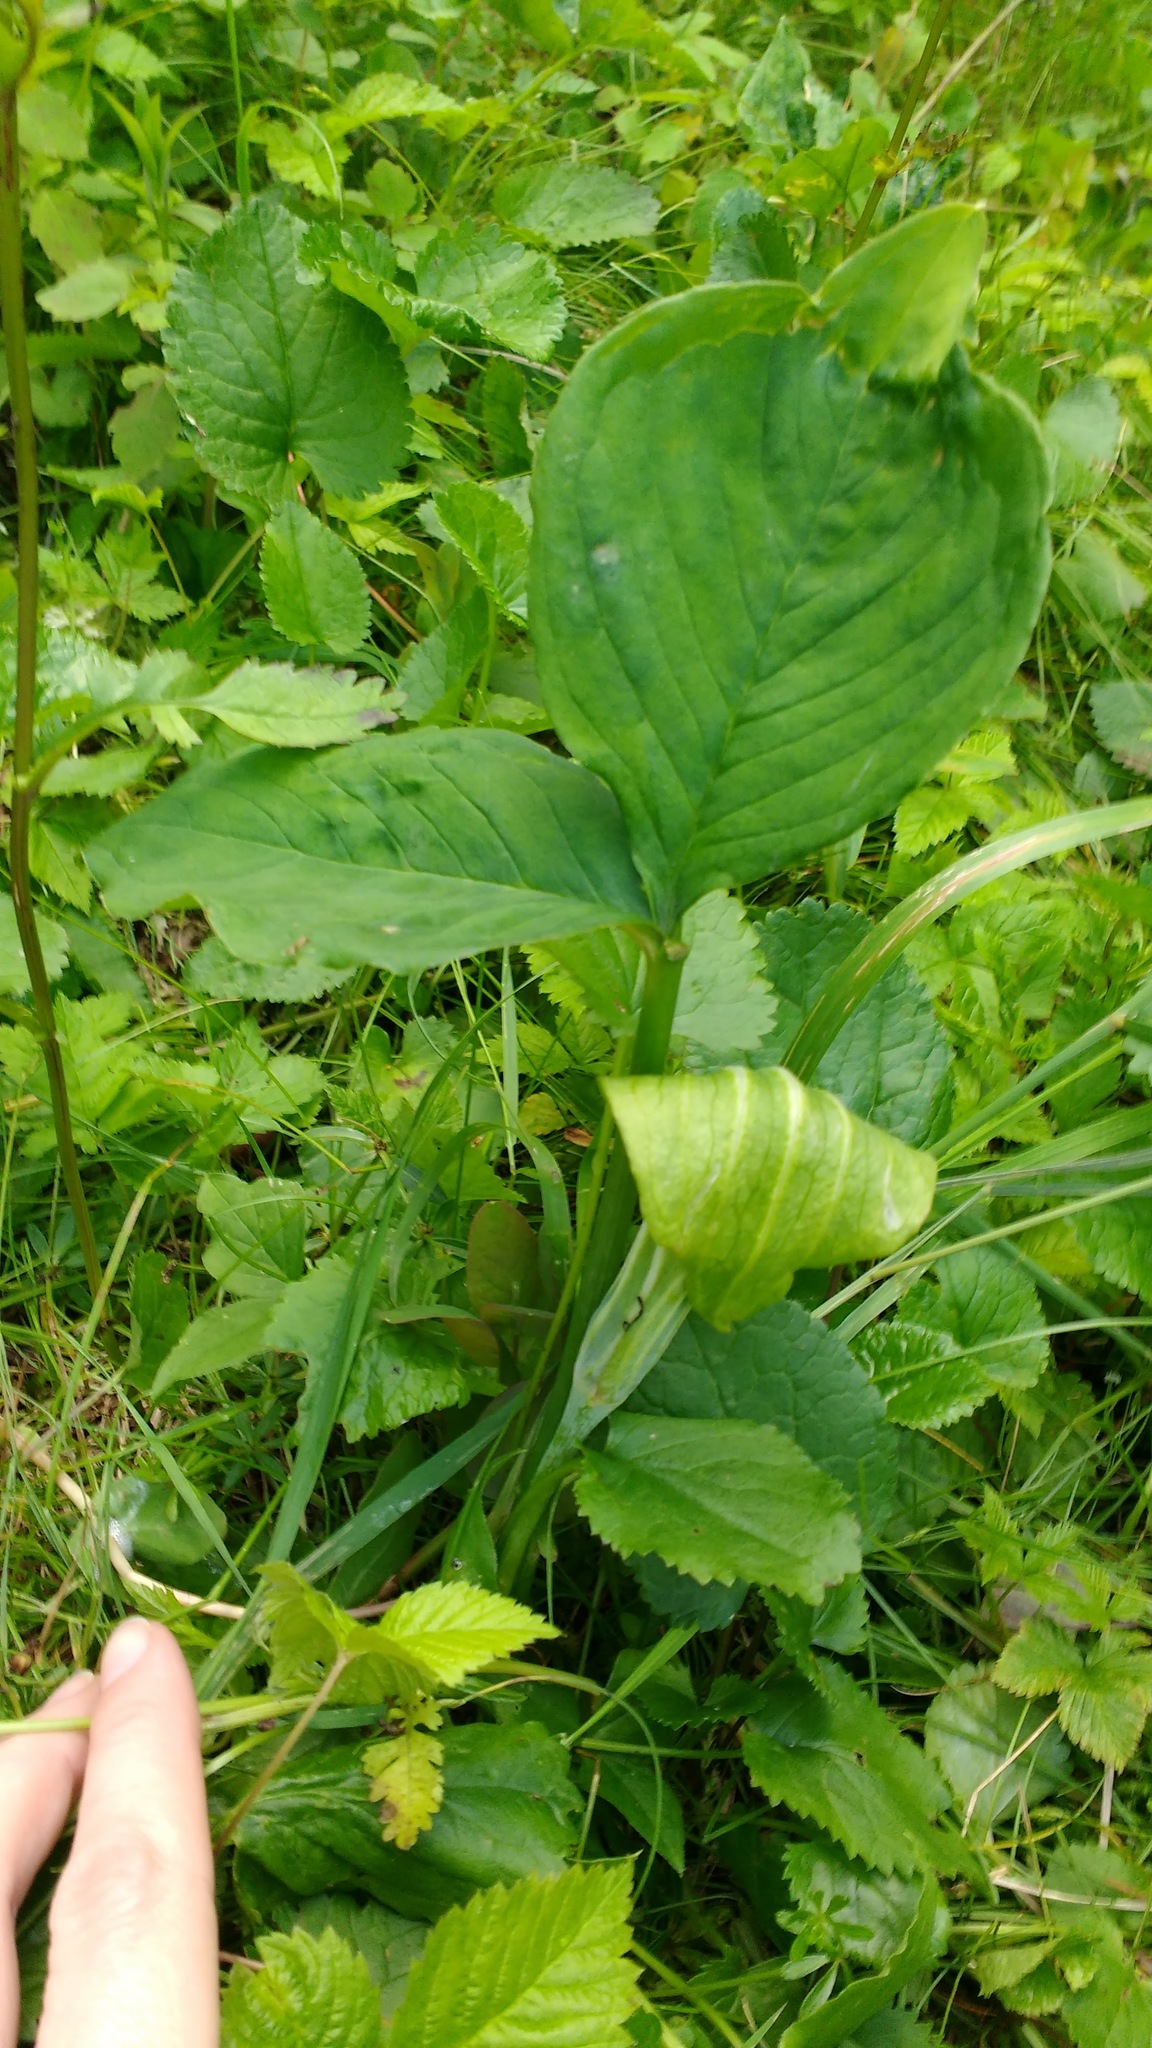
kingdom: Plantae
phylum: Tracheophyta
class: Liliopsida
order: Alismatales
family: Araceae
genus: Arisaema
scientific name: Arisaema stewardsonii
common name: Swamp jack-in-the-pulpit
